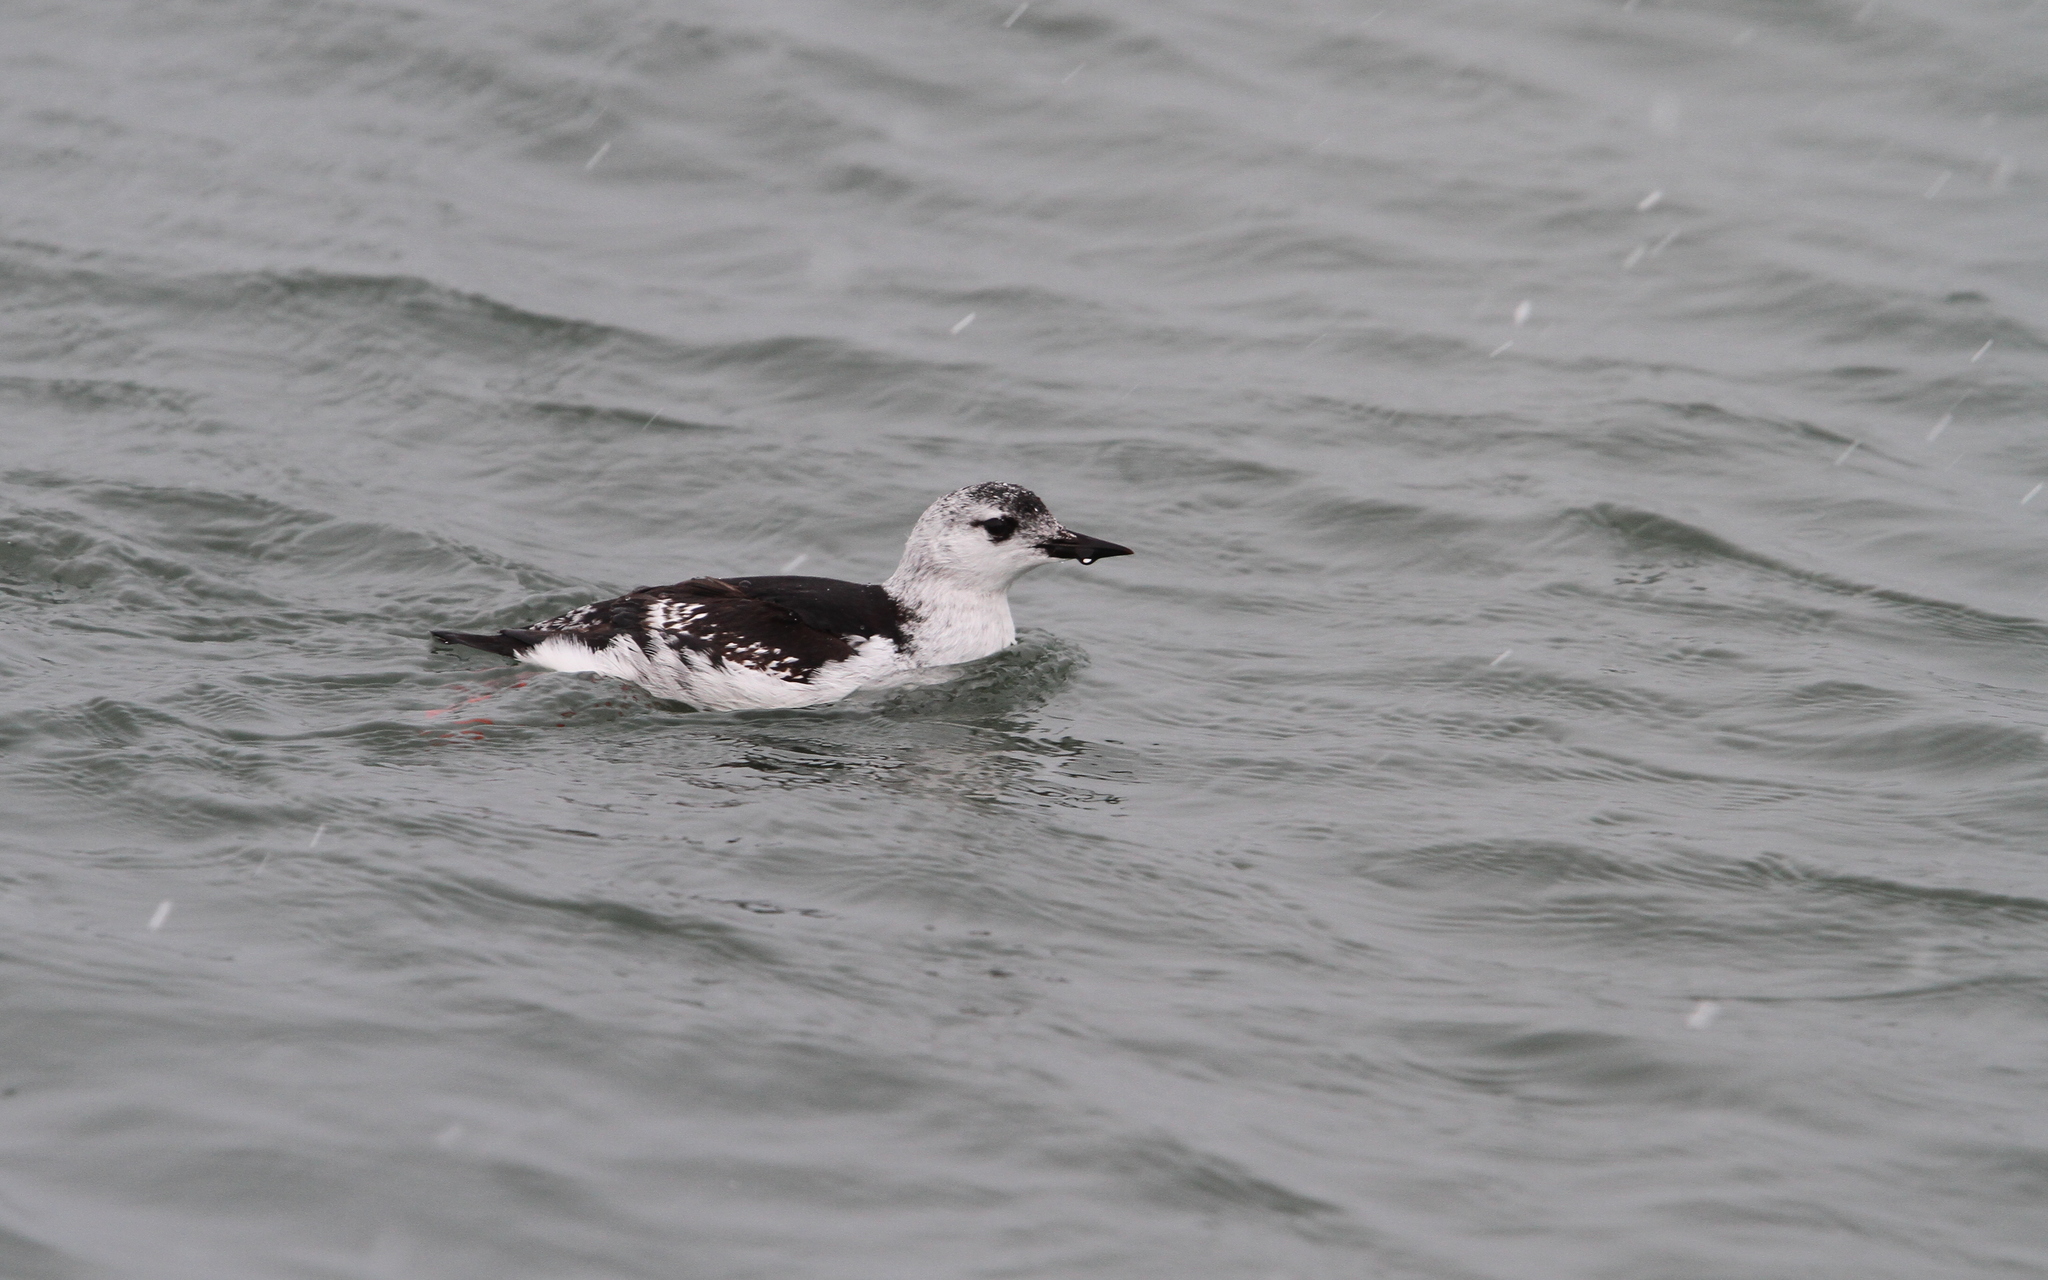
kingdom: Animalia
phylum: Chordata
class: Aves
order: Charadriiformes
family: Alcidae
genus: Cepphus
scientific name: Cepphus grylle
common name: Black guillemot
